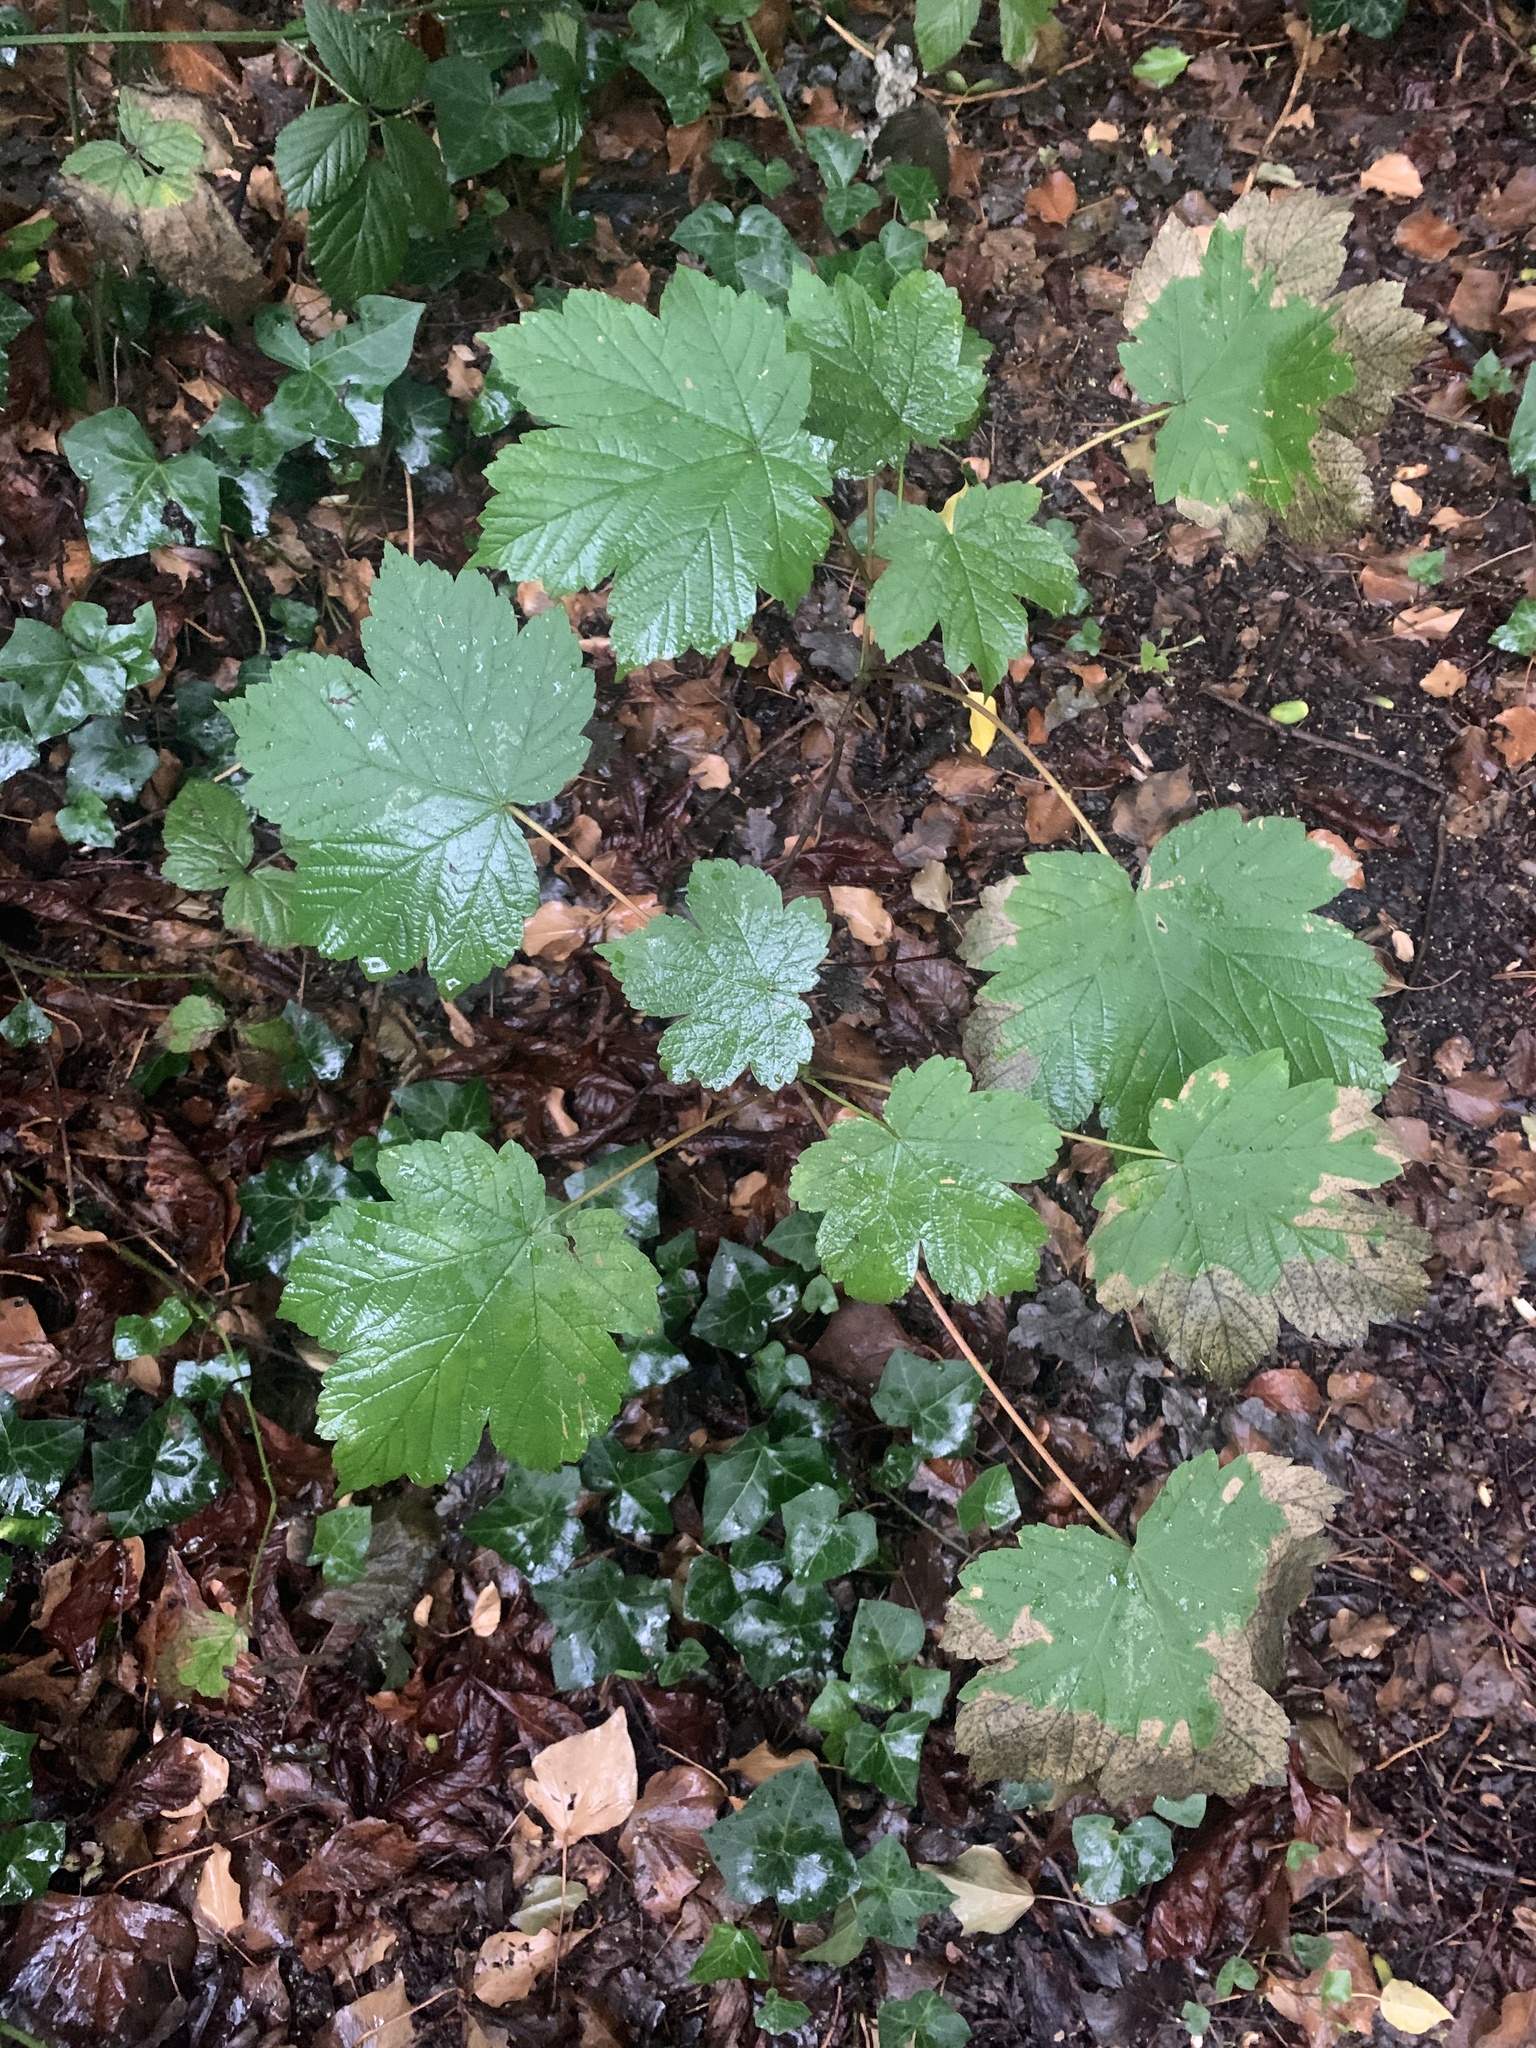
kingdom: Plantae
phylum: Tracheophyta
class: Magnoliopsida
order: Sapindales
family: Sapindaceae
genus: Acer
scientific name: Acer pseudoplatanus
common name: Sycamore
